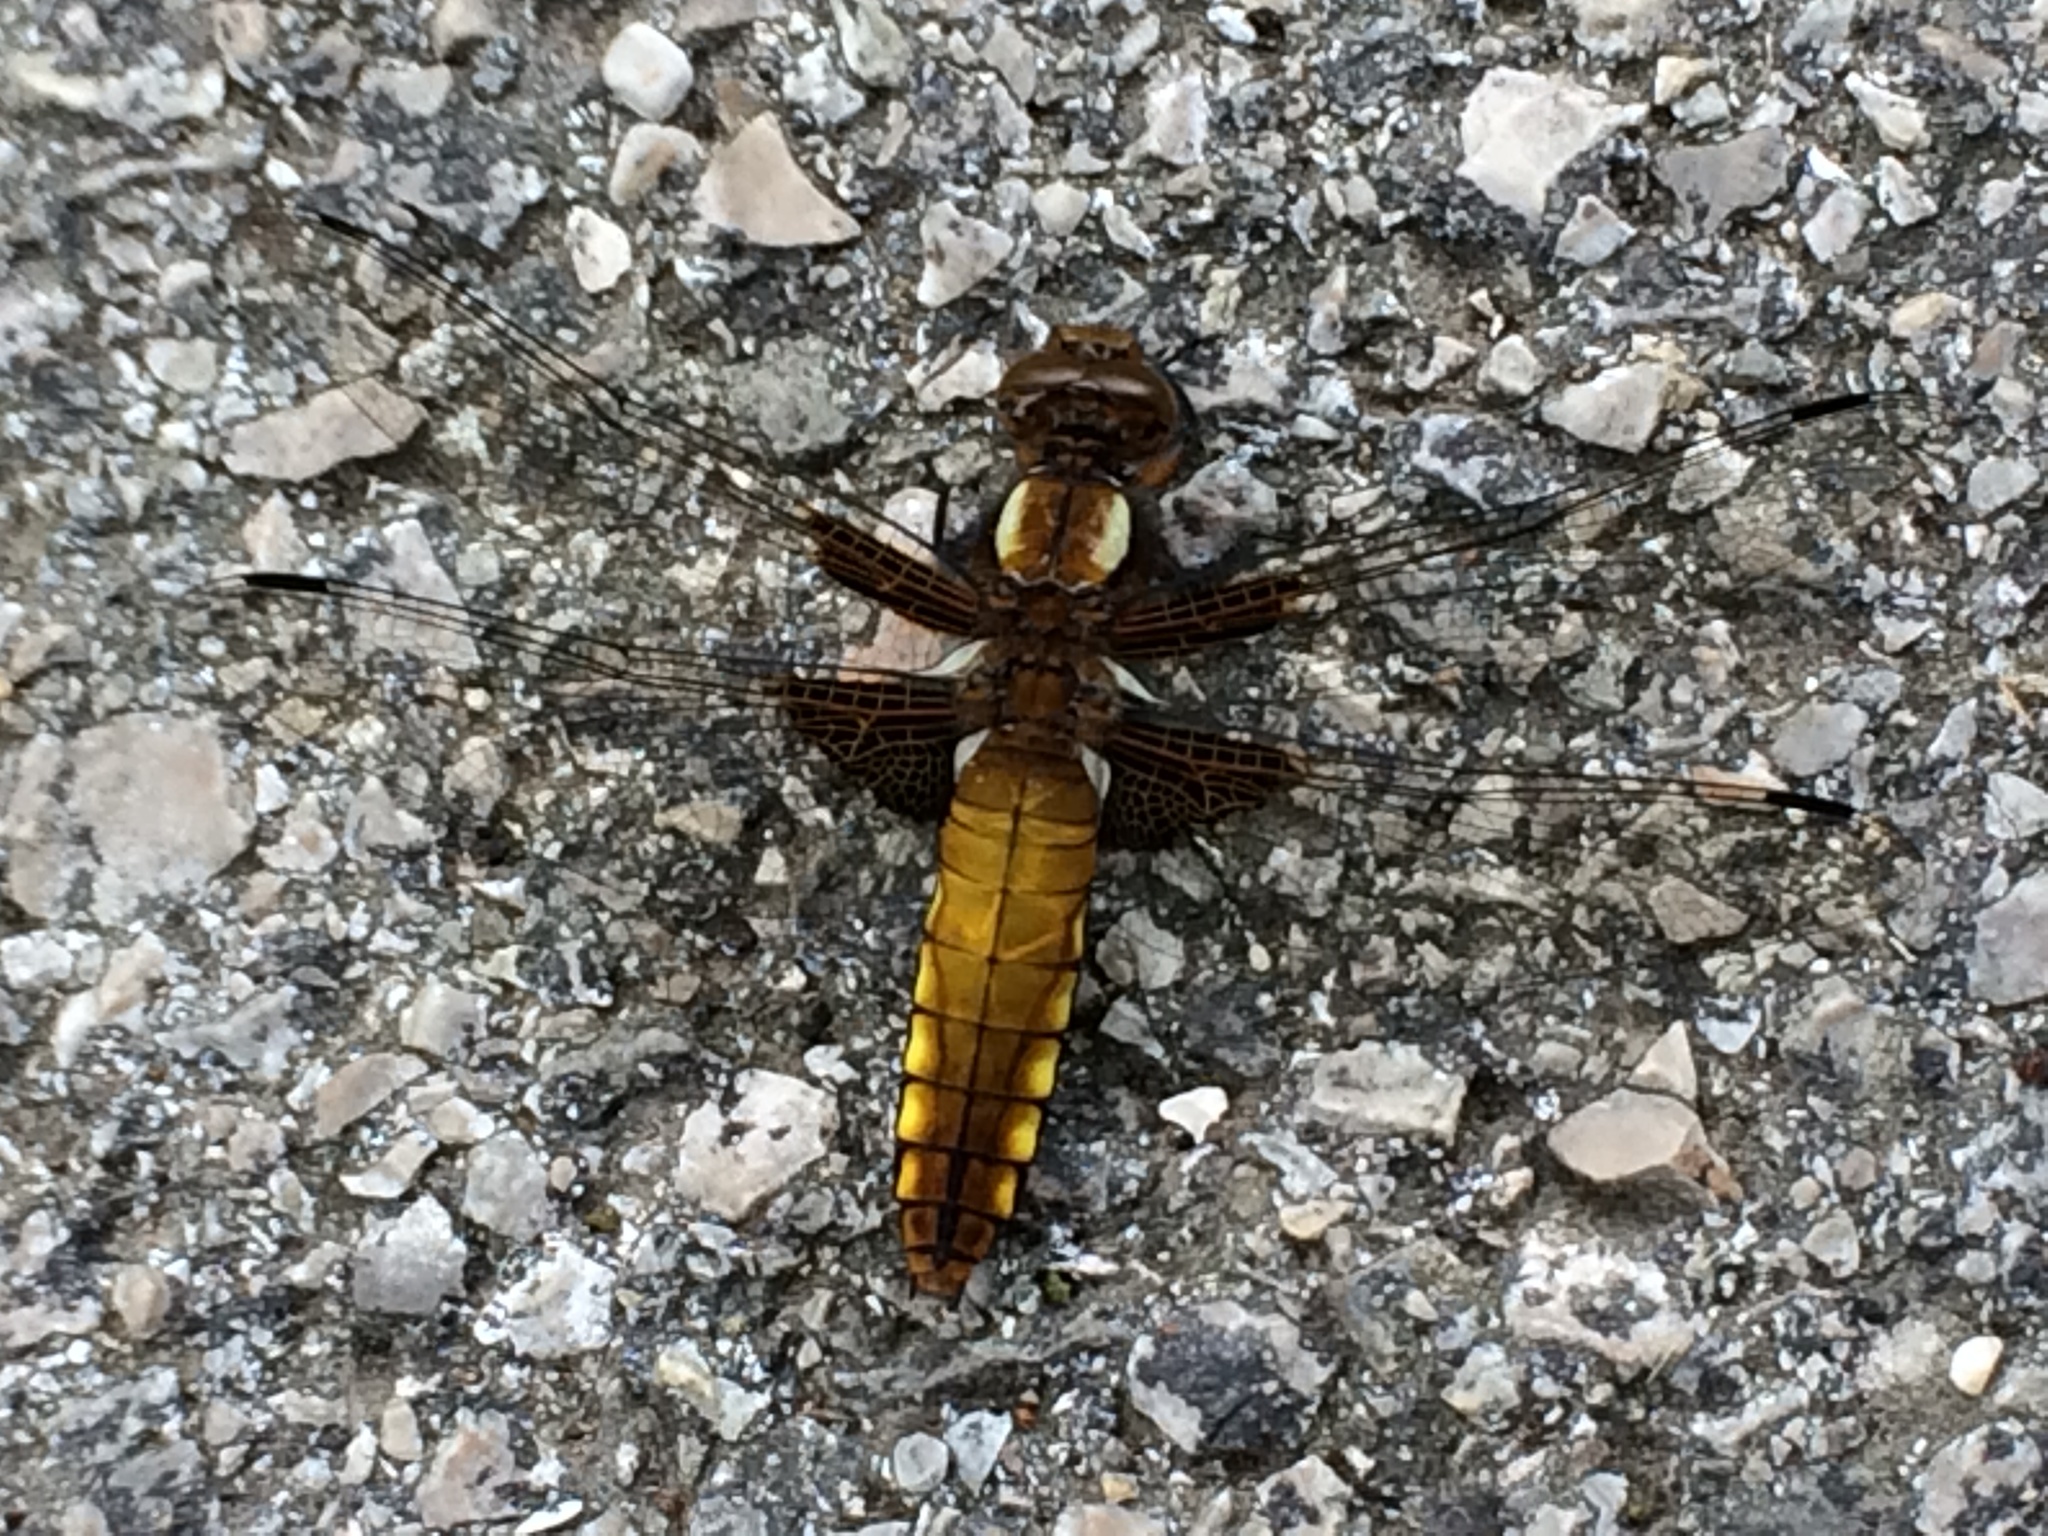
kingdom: Animalia
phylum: Arthropoda
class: Insecta
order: Odonata
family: Libellulidae
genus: Libellula
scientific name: Libellula depressa
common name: Broad-bodied chaser
